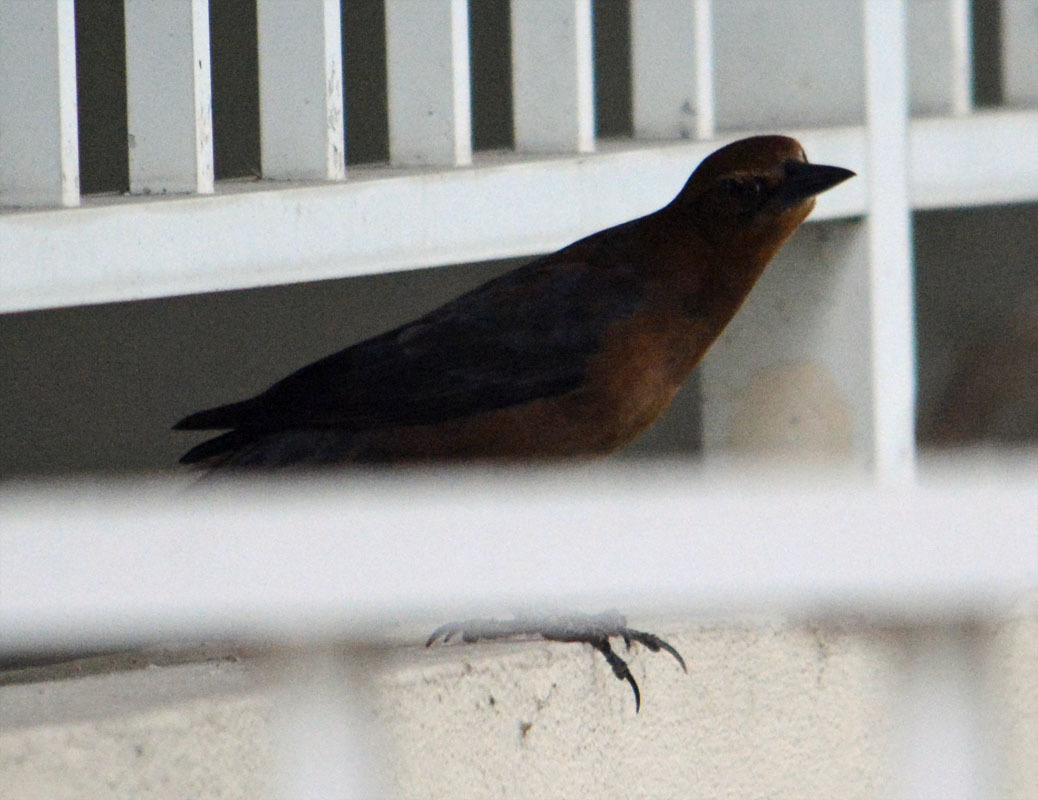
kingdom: Animalia
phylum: Chordata
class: Aves
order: Passeriformes
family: Icteridae
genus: Quiscalus
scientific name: Quiscalus major
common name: Boat-tailed grackle
